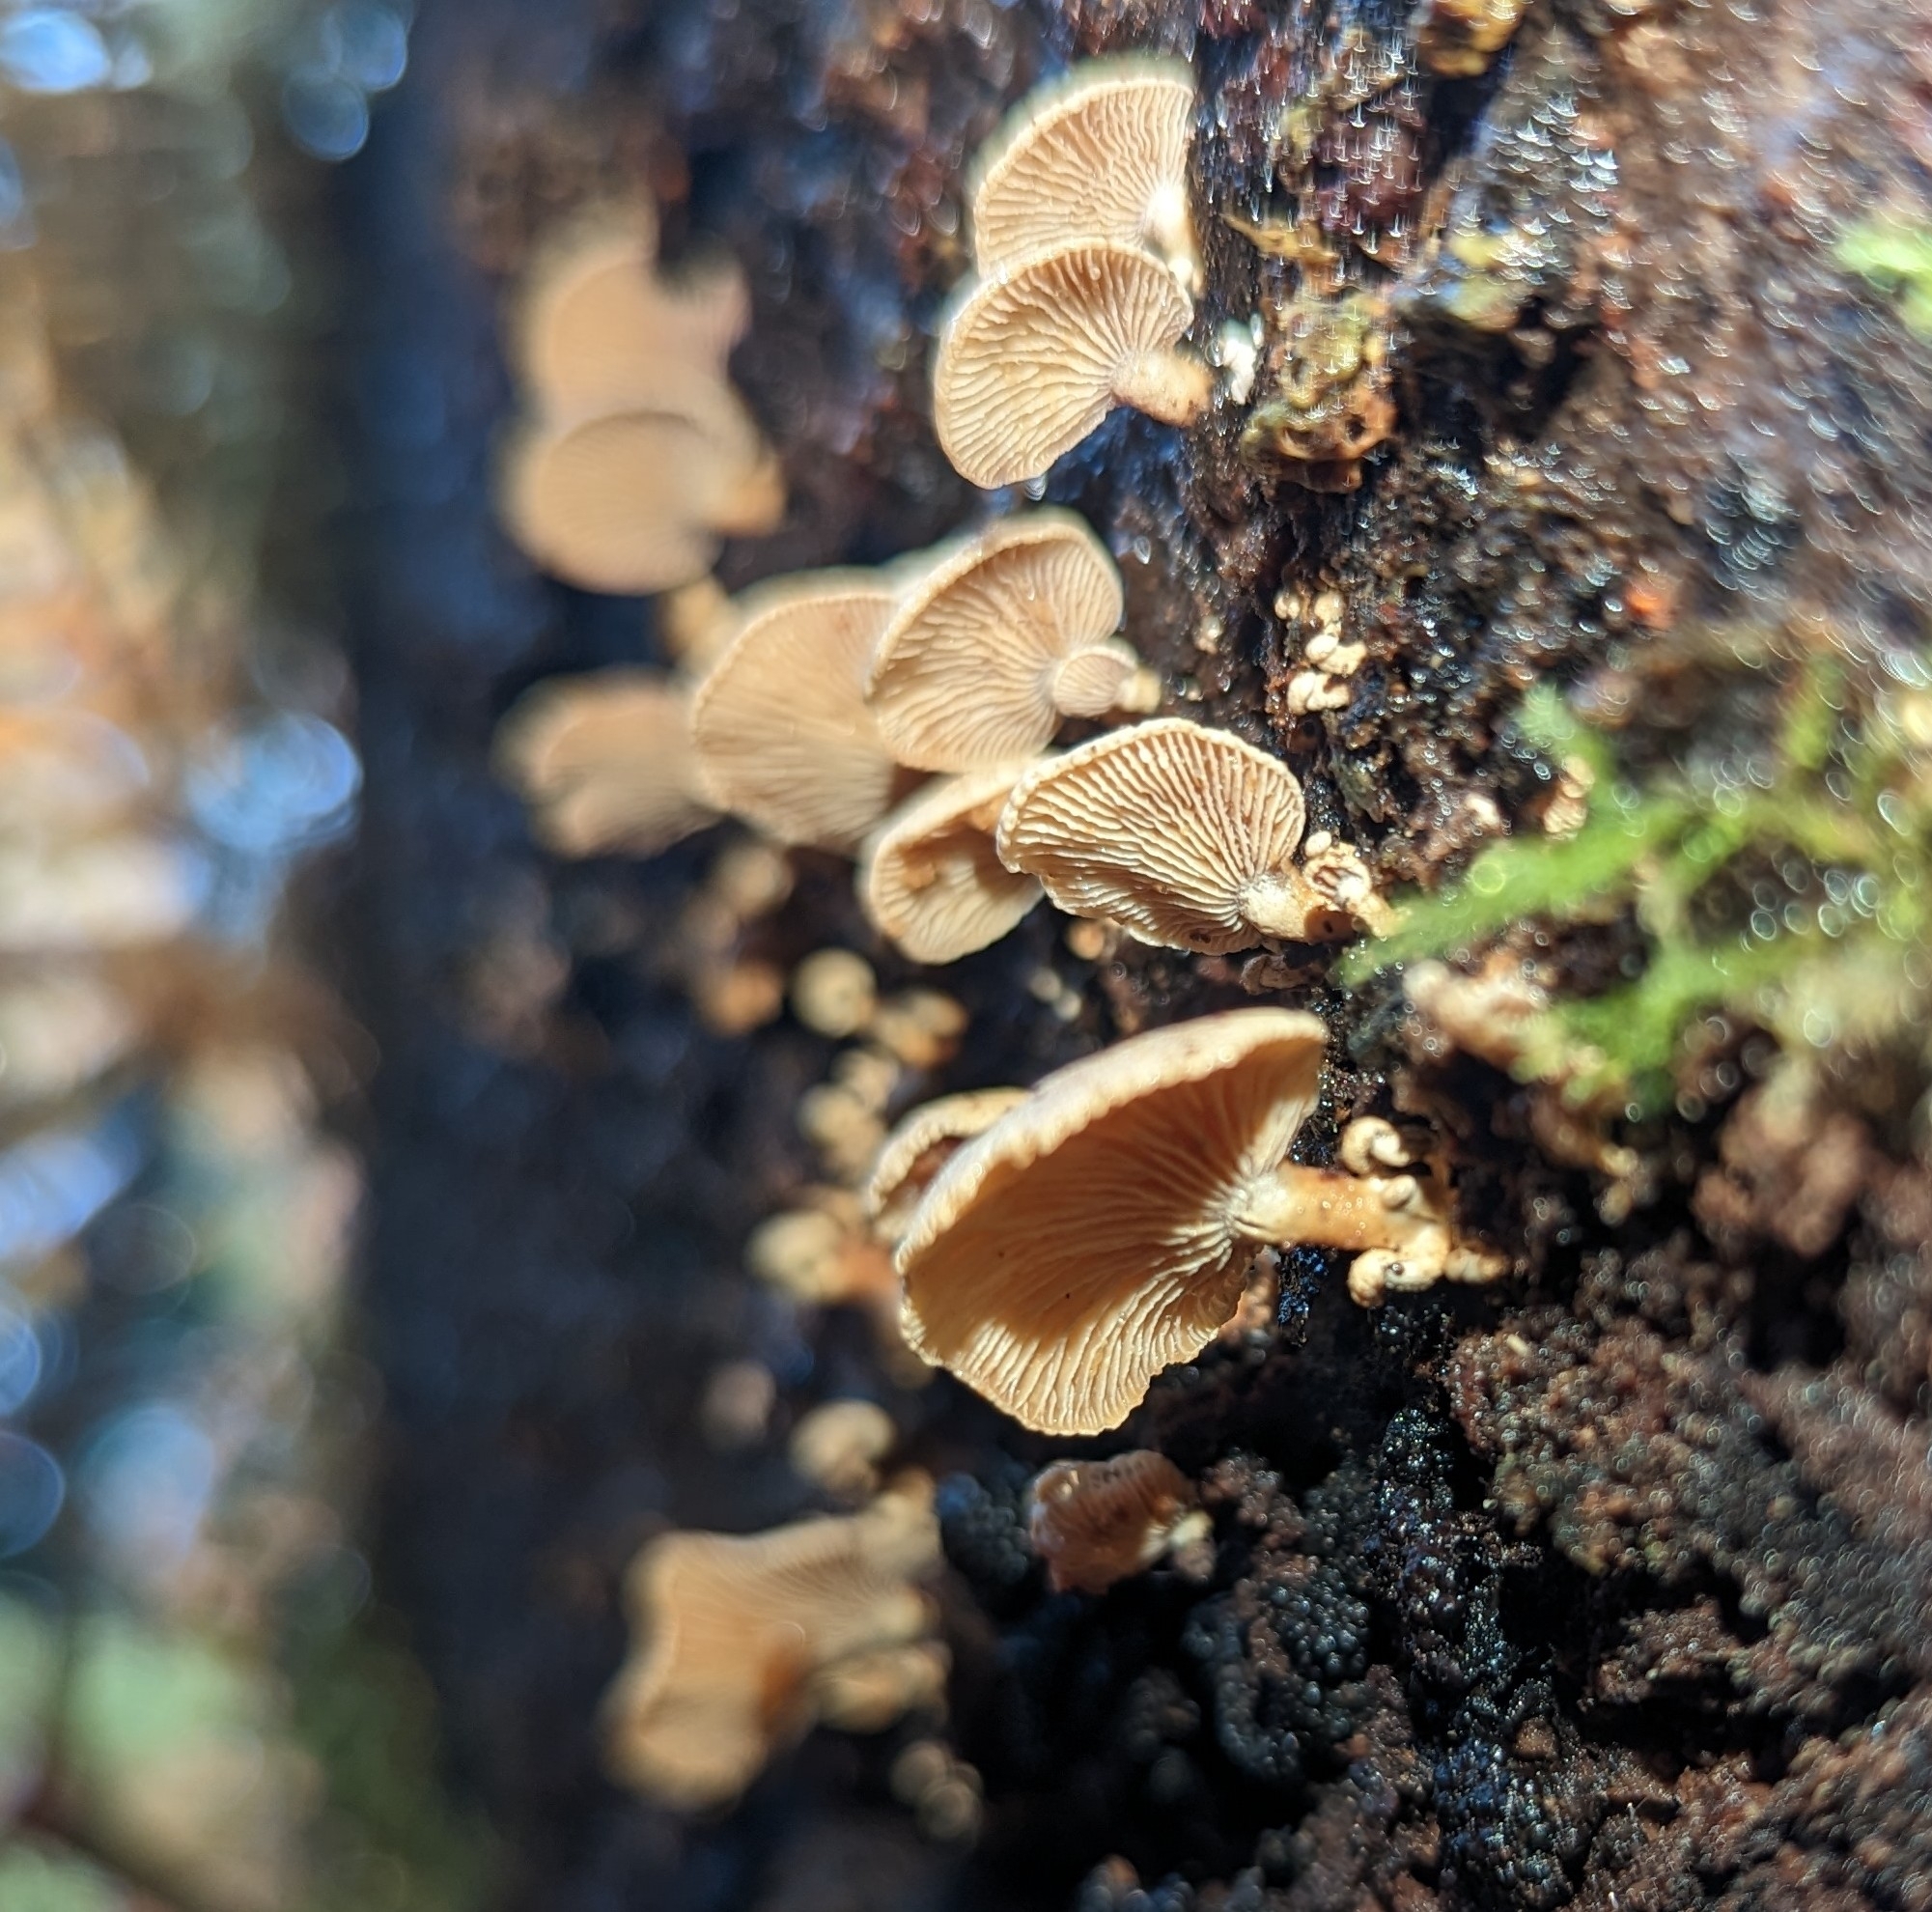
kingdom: Fungi
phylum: Basidiomycota
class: Agaricomycetes
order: Agaricales
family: Mycenaceae
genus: Panellus
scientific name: Panellus stipticus
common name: Bitter oysterling
